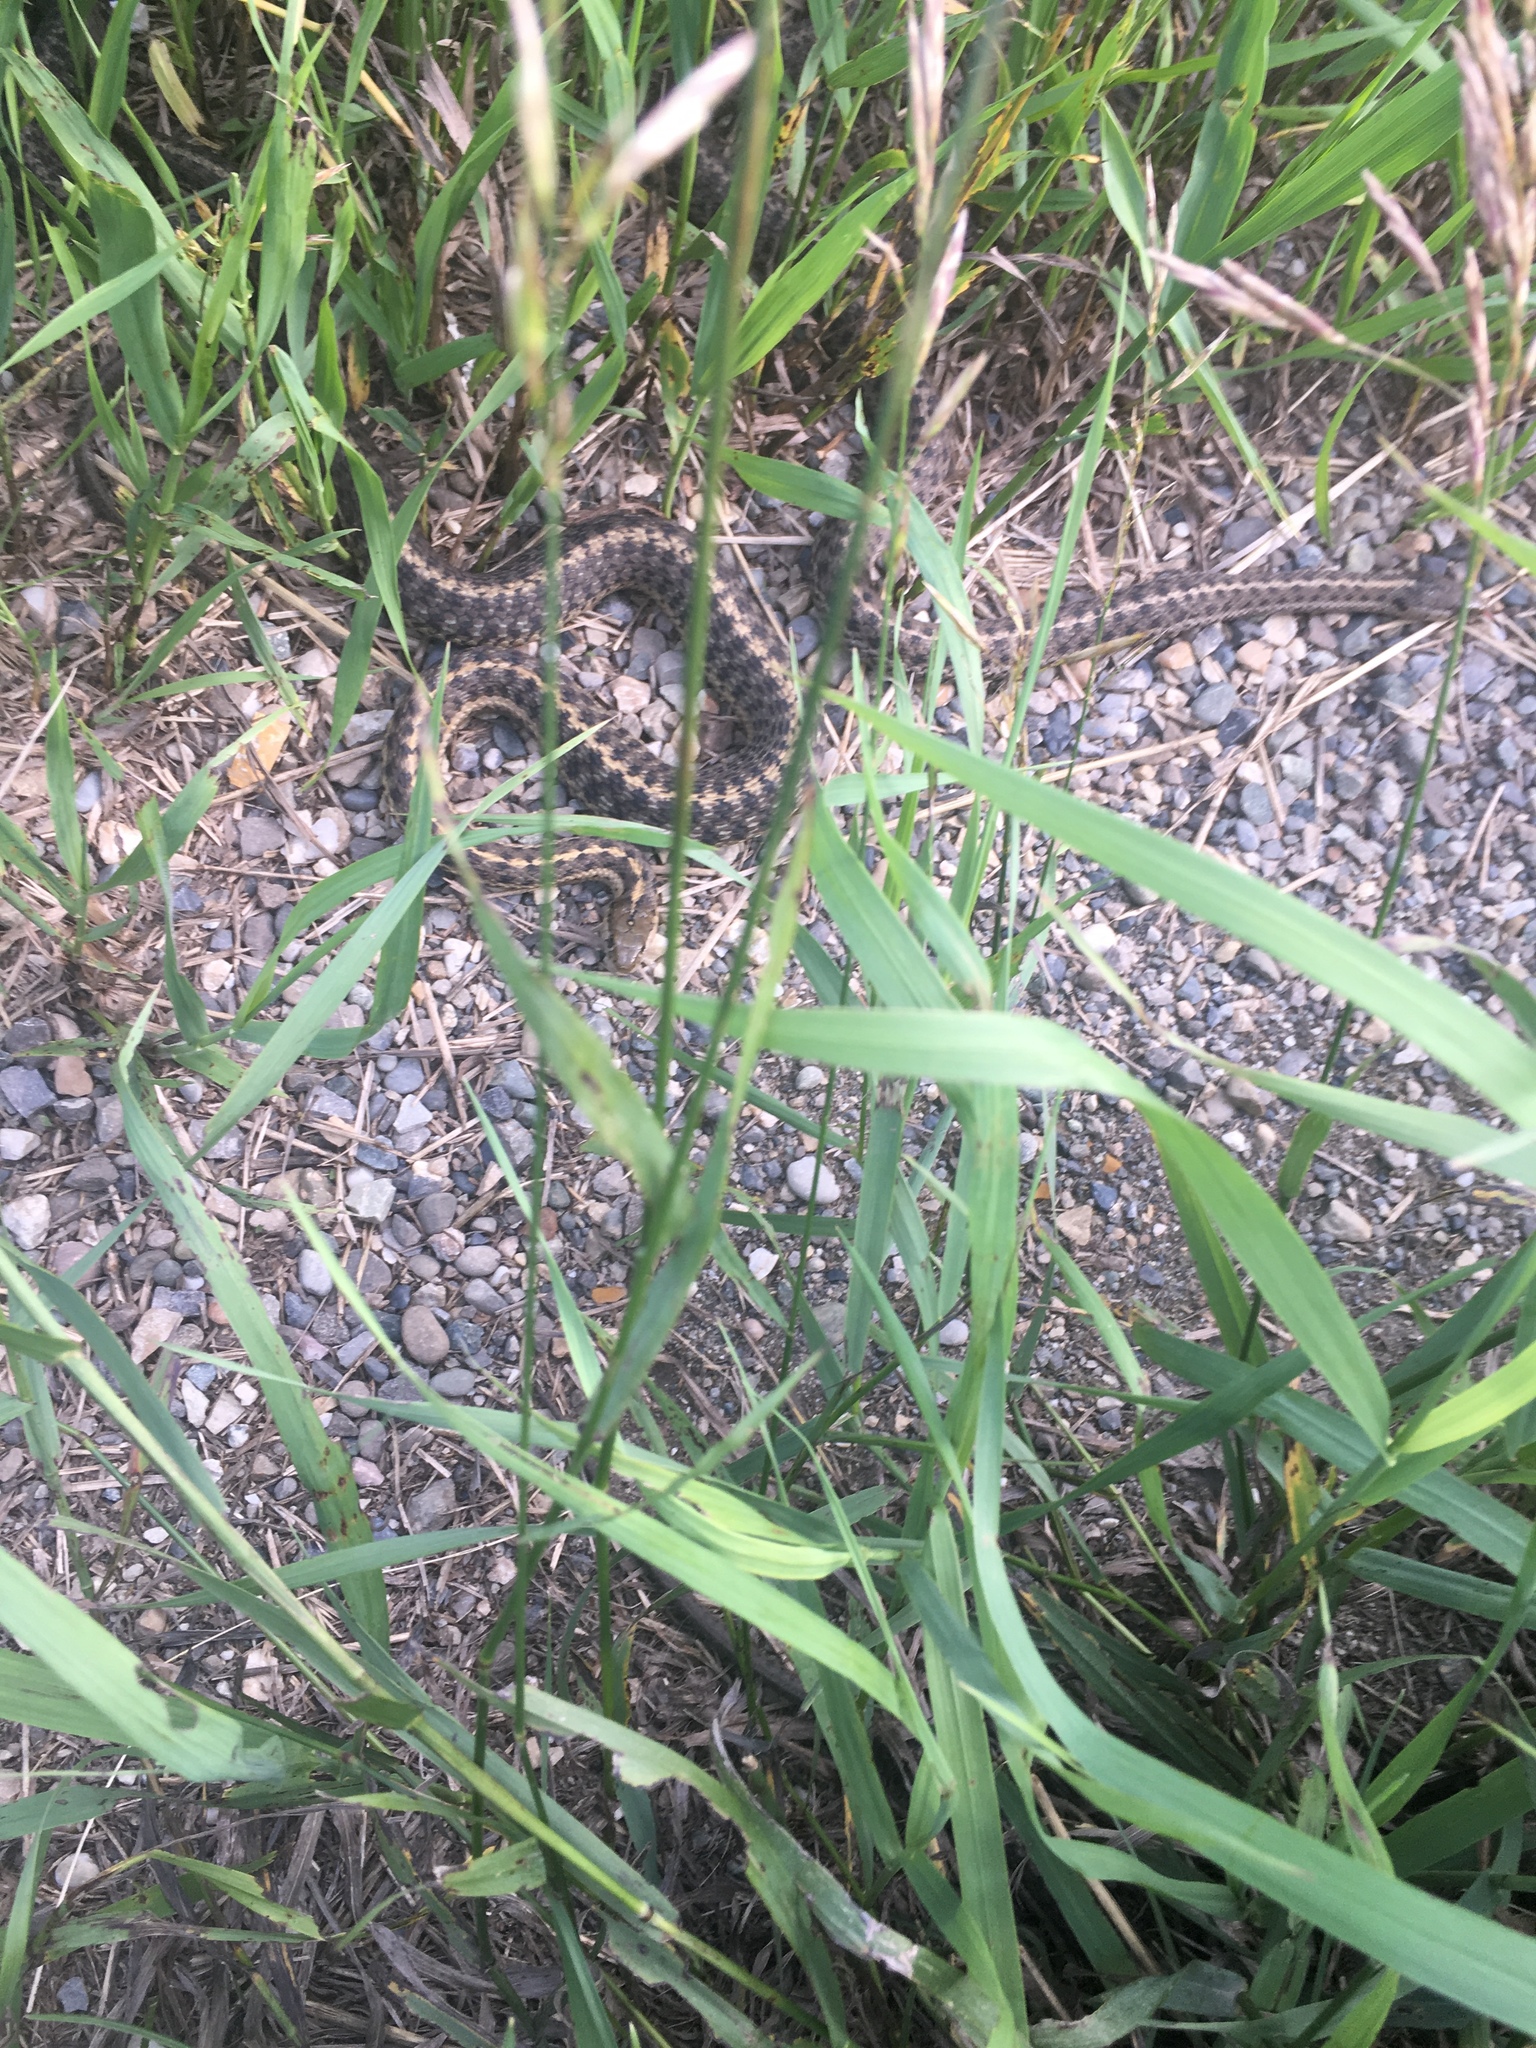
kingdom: Animalia
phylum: Chordata
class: Squamata
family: Colubridae
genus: Thamnophis
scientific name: Thamnophis elegans
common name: Western terrestrial garter snake
